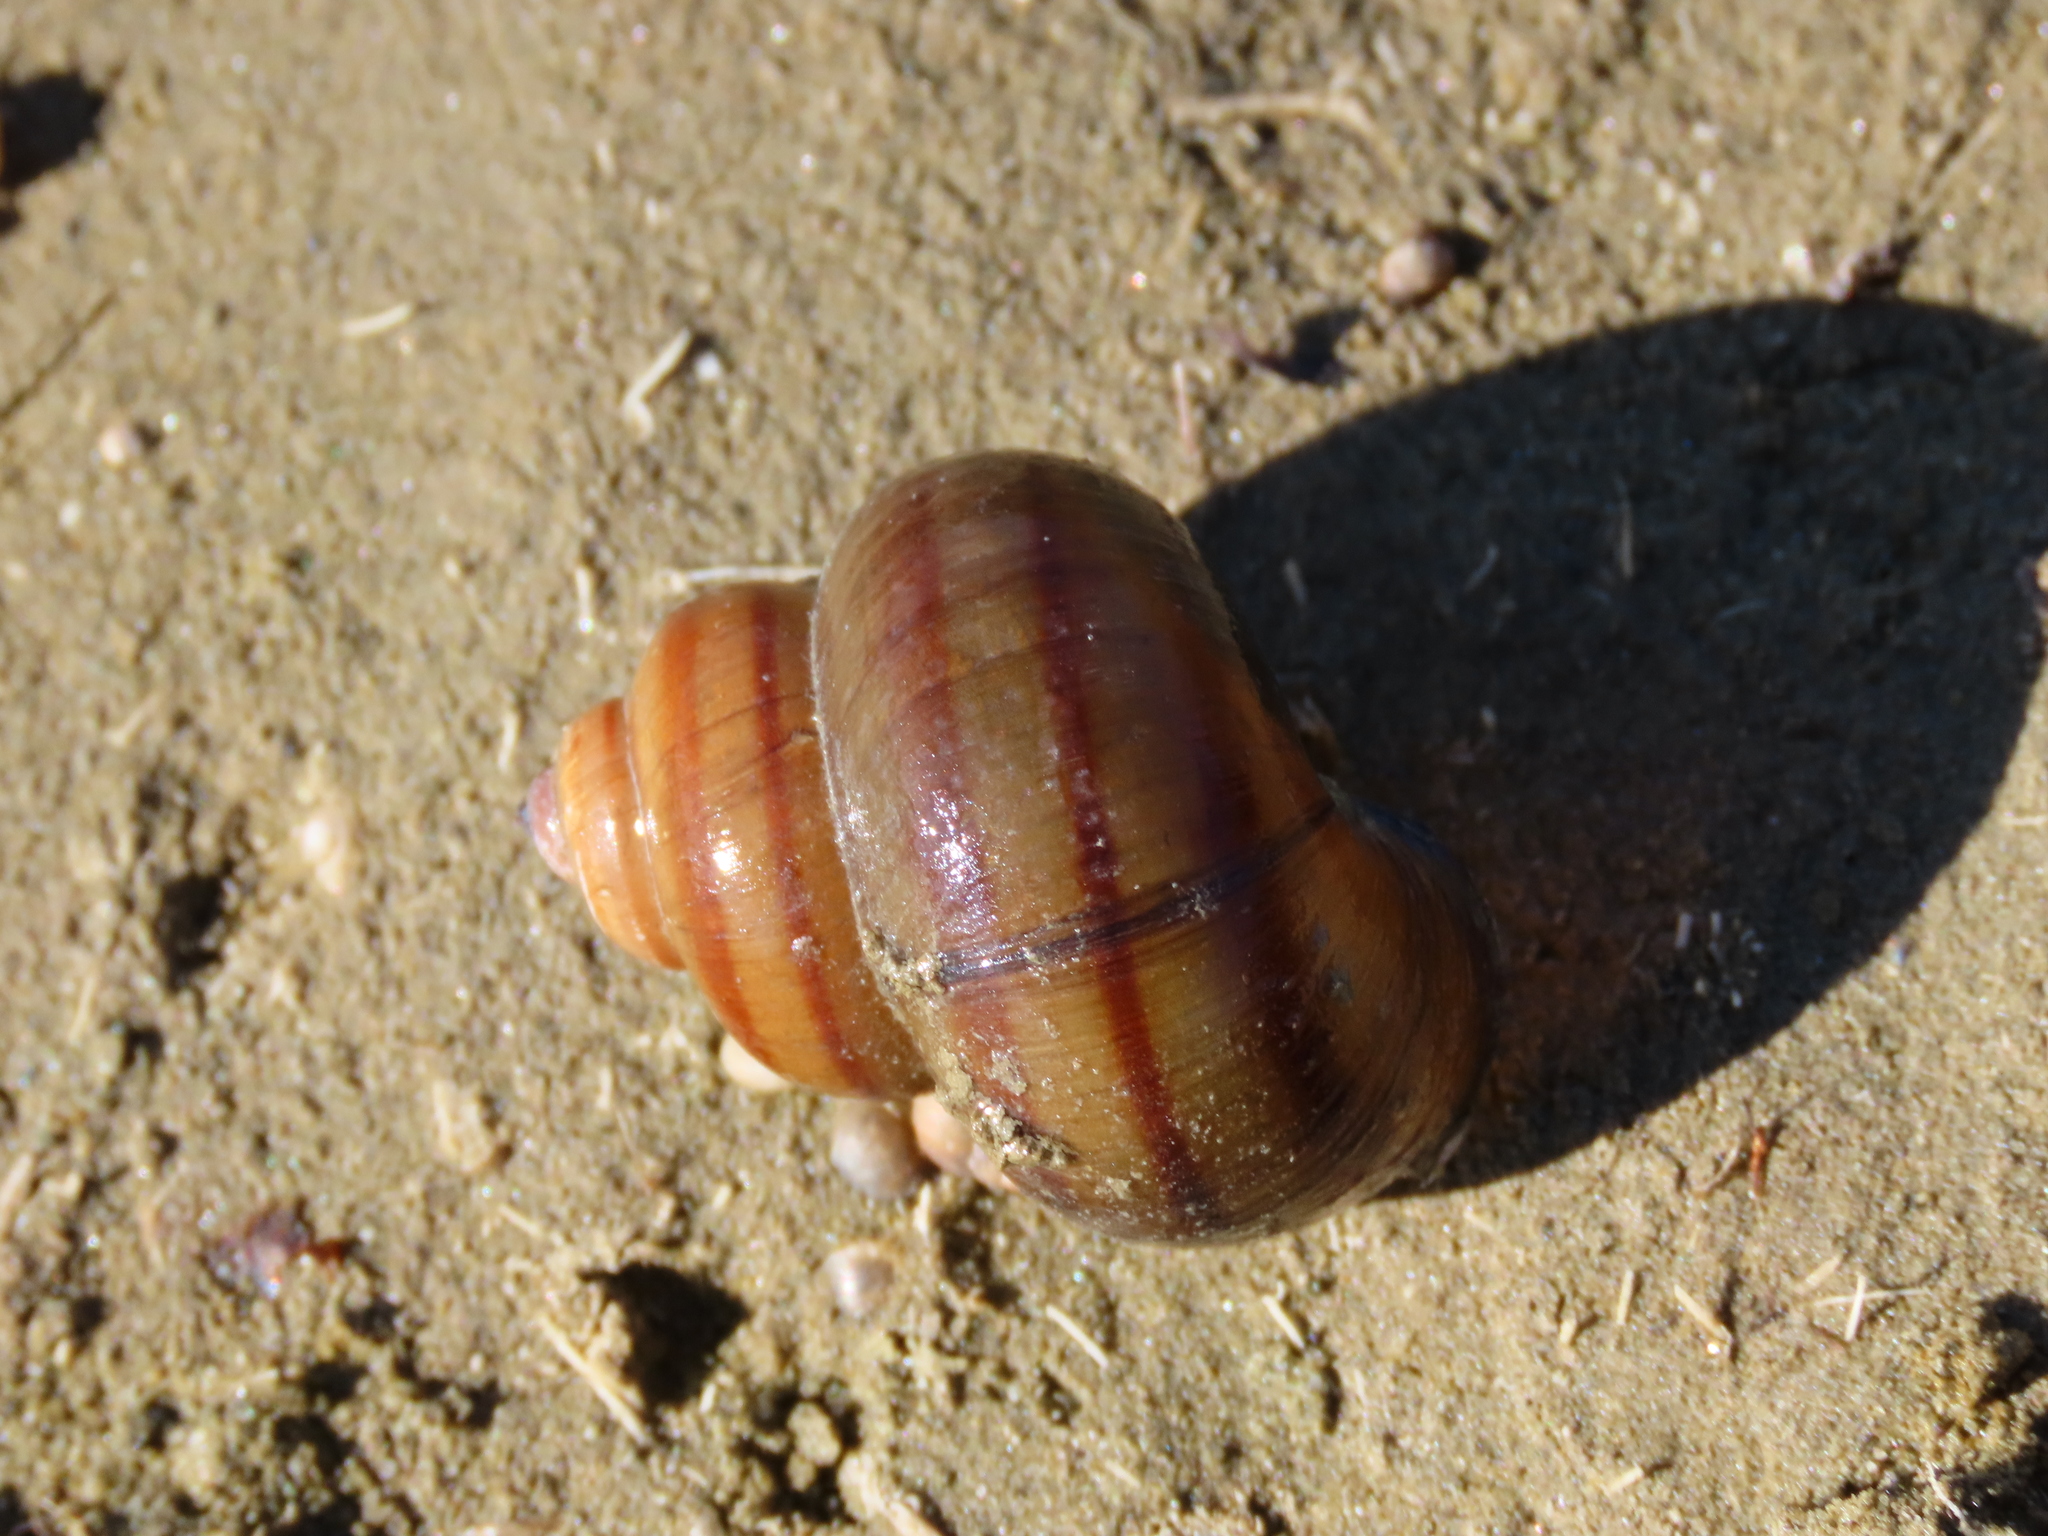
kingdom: Animalia
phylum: Mollusca
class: Gastropoda
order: Architaenioglossa
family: Viviparidae
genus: Viviparus
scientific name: Viviparus contectus
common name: Lister's river snail
